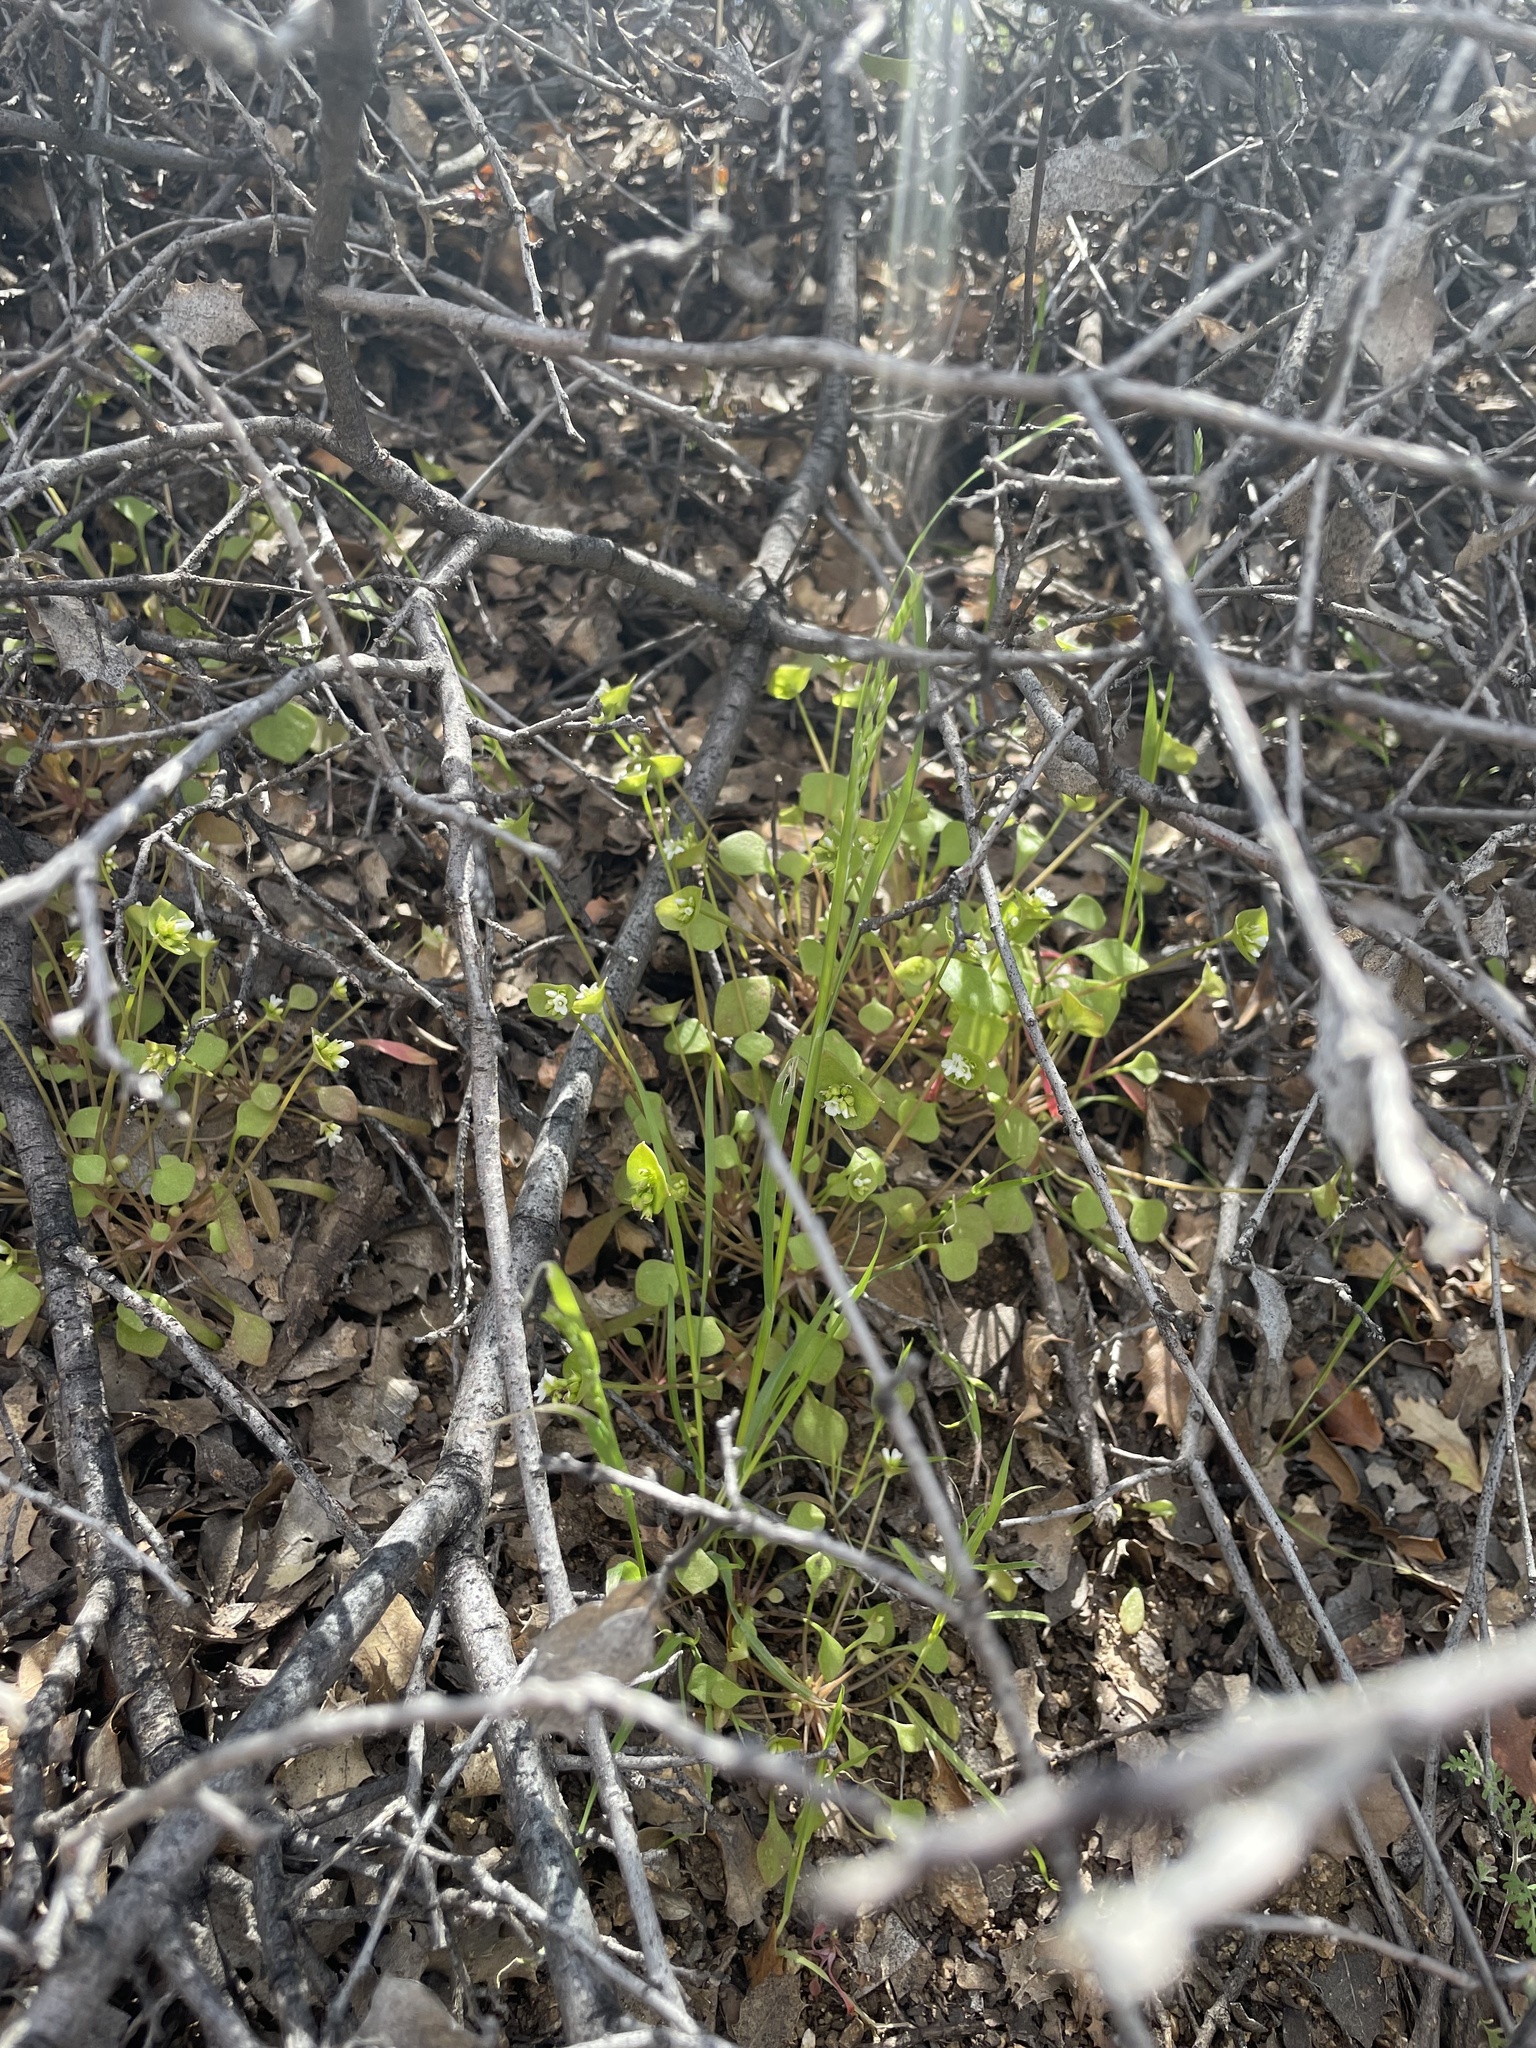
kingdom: Plantae
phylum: Tracheophyta
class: Magnoliopsida
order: Caryophyllales
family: Montiaceae
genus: Claytonia
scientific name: Claytonia perfoliata
